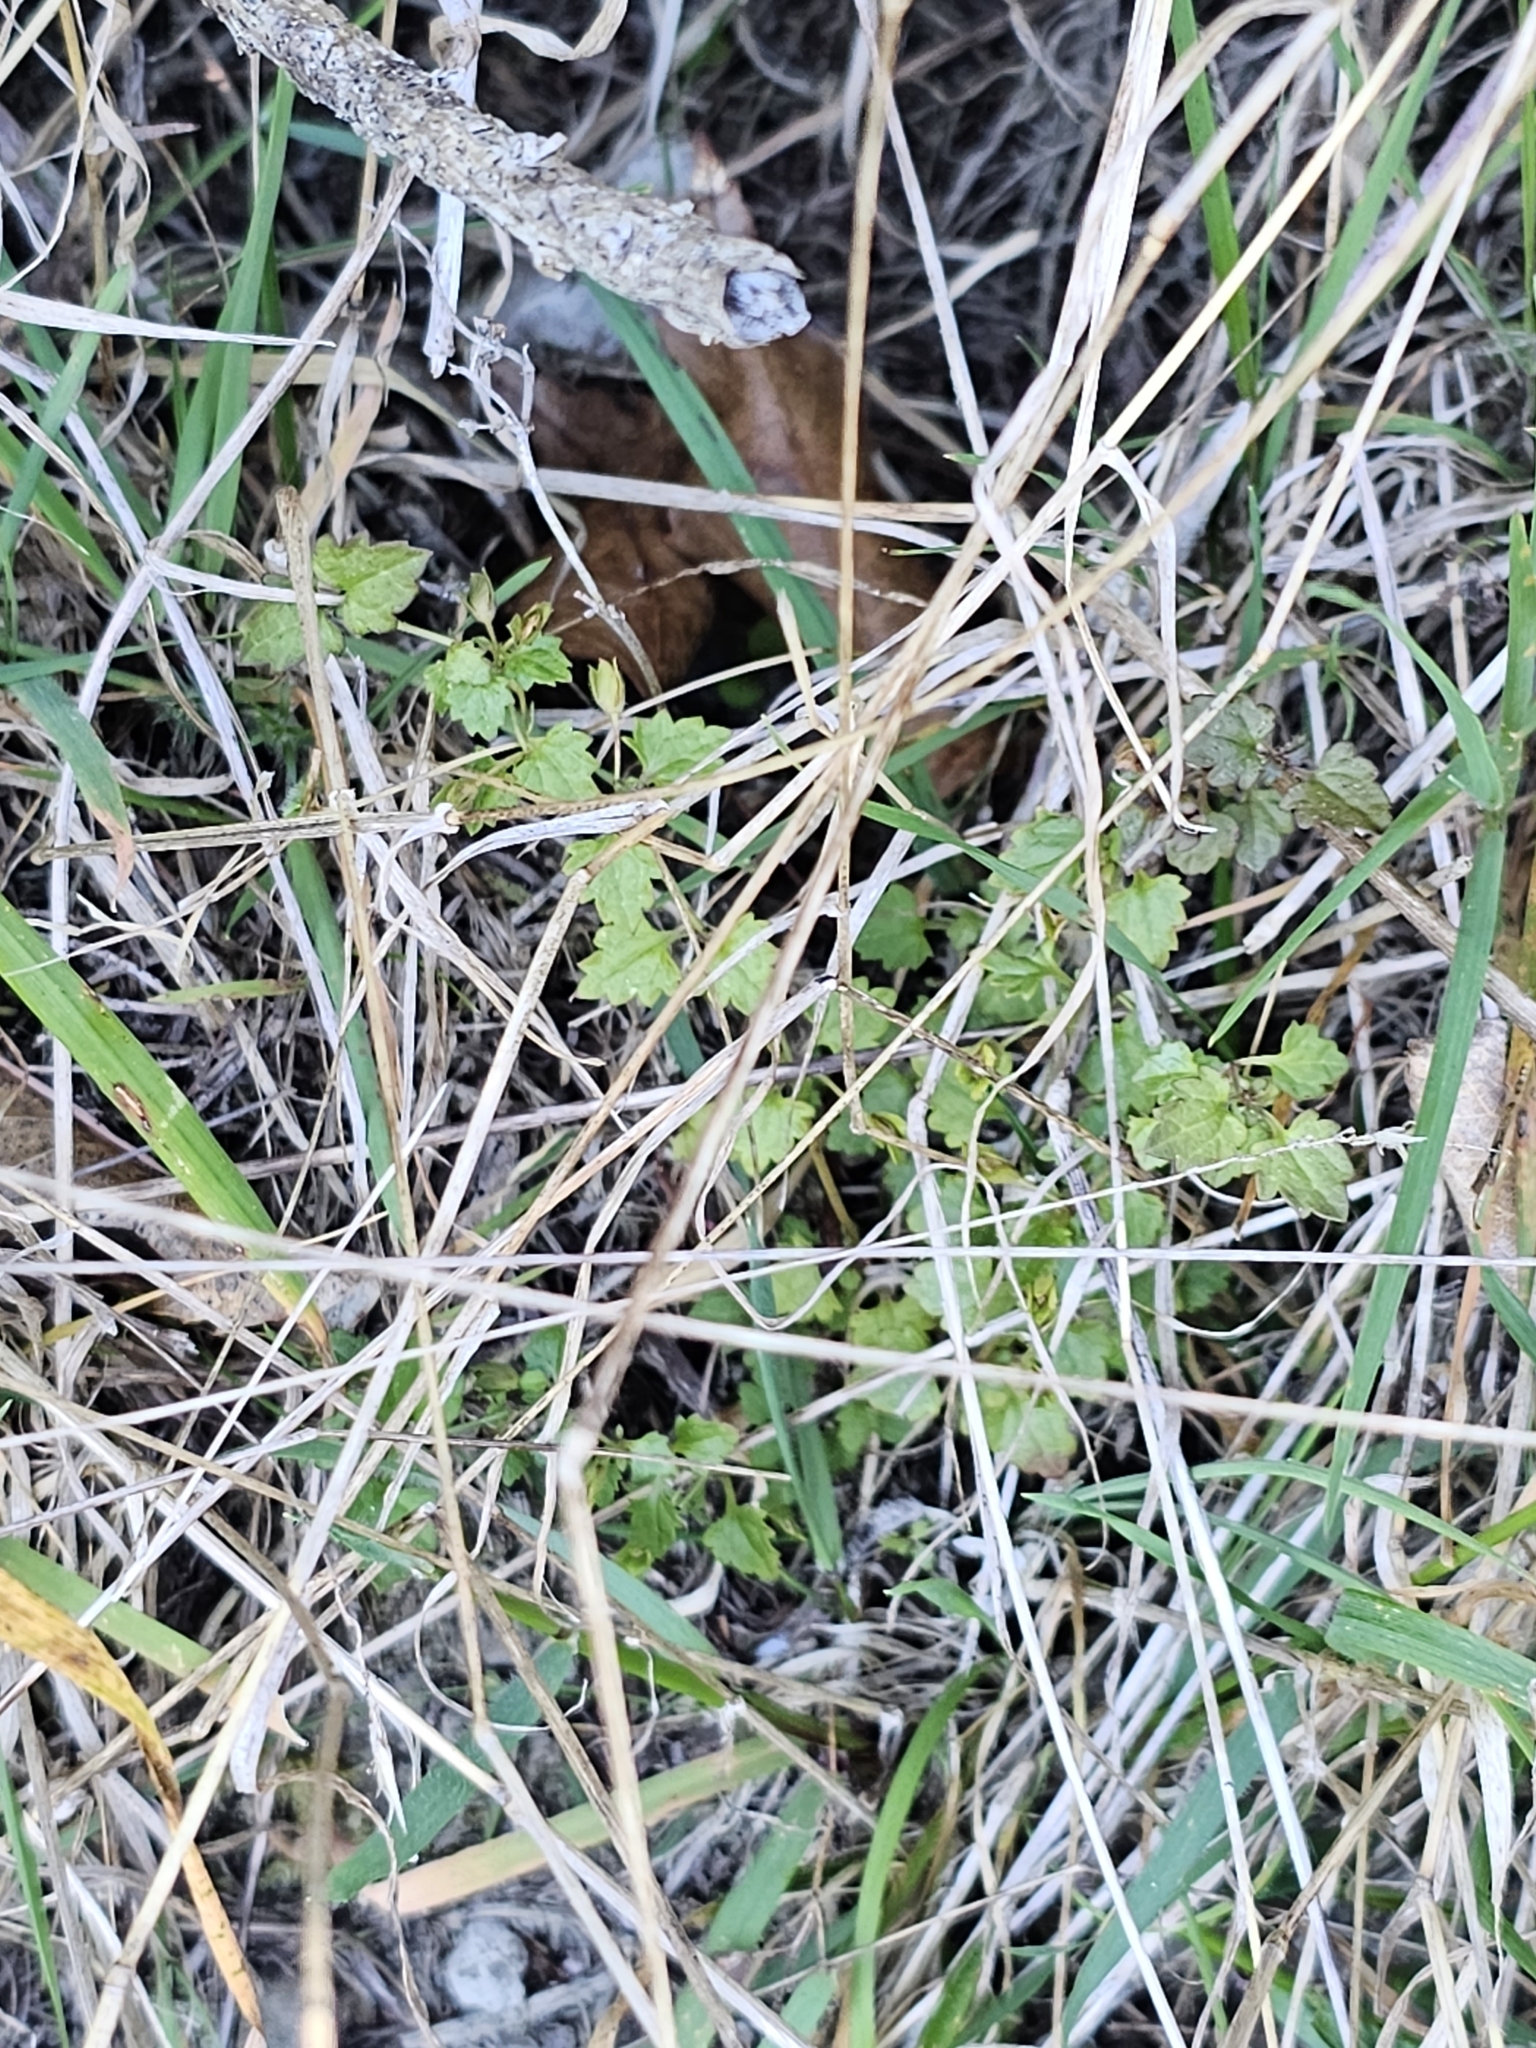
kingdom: Plantae
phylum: Tracheophyta
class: Magnoliopsida
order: Lamiales
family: Plantaginaceae
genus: Veronica
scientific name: Veronica plebeia
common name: Speedwell
